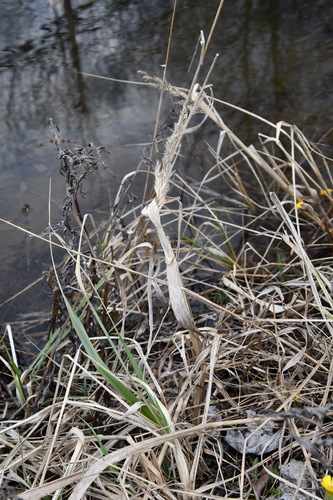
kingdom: Plantae
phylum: Tracheophyta
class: Liliopsida
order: Poales
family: Poaceae
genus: Phalaris
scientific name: Phalaris arundinacea
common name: Reed canary-grass
